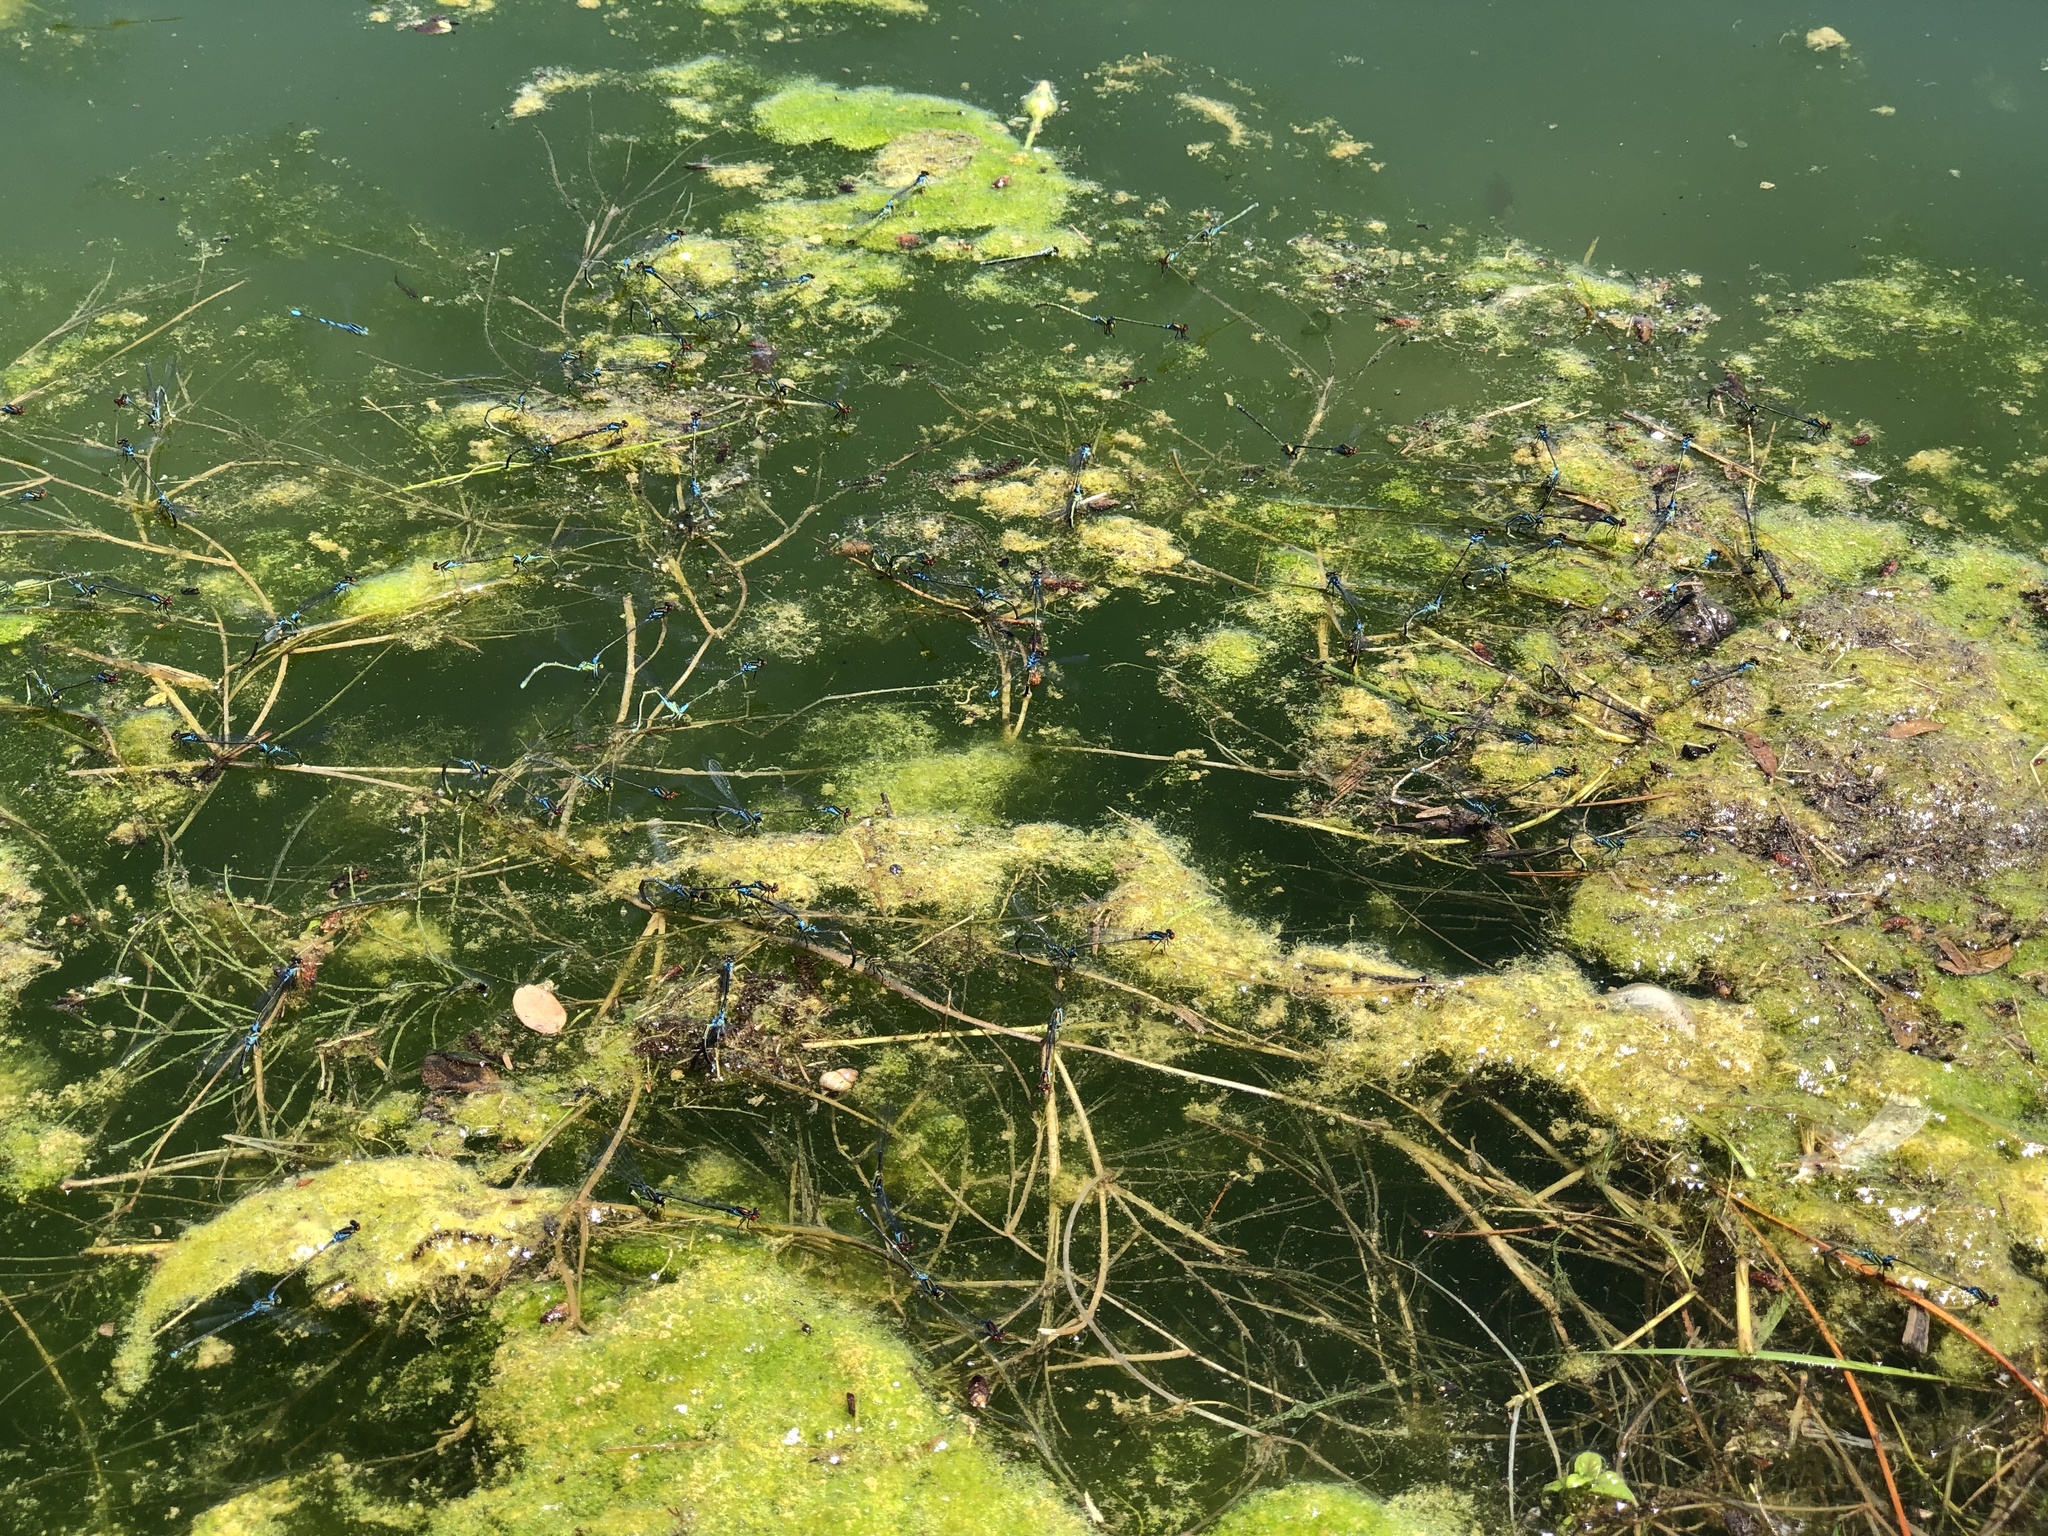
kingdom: Animalia
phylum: Arthropoda
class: Insecta
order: Odonata
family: Coenagrionidae
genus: Erythromma
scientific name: Erythromma viridulum
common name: Small red-eyed damselfly
